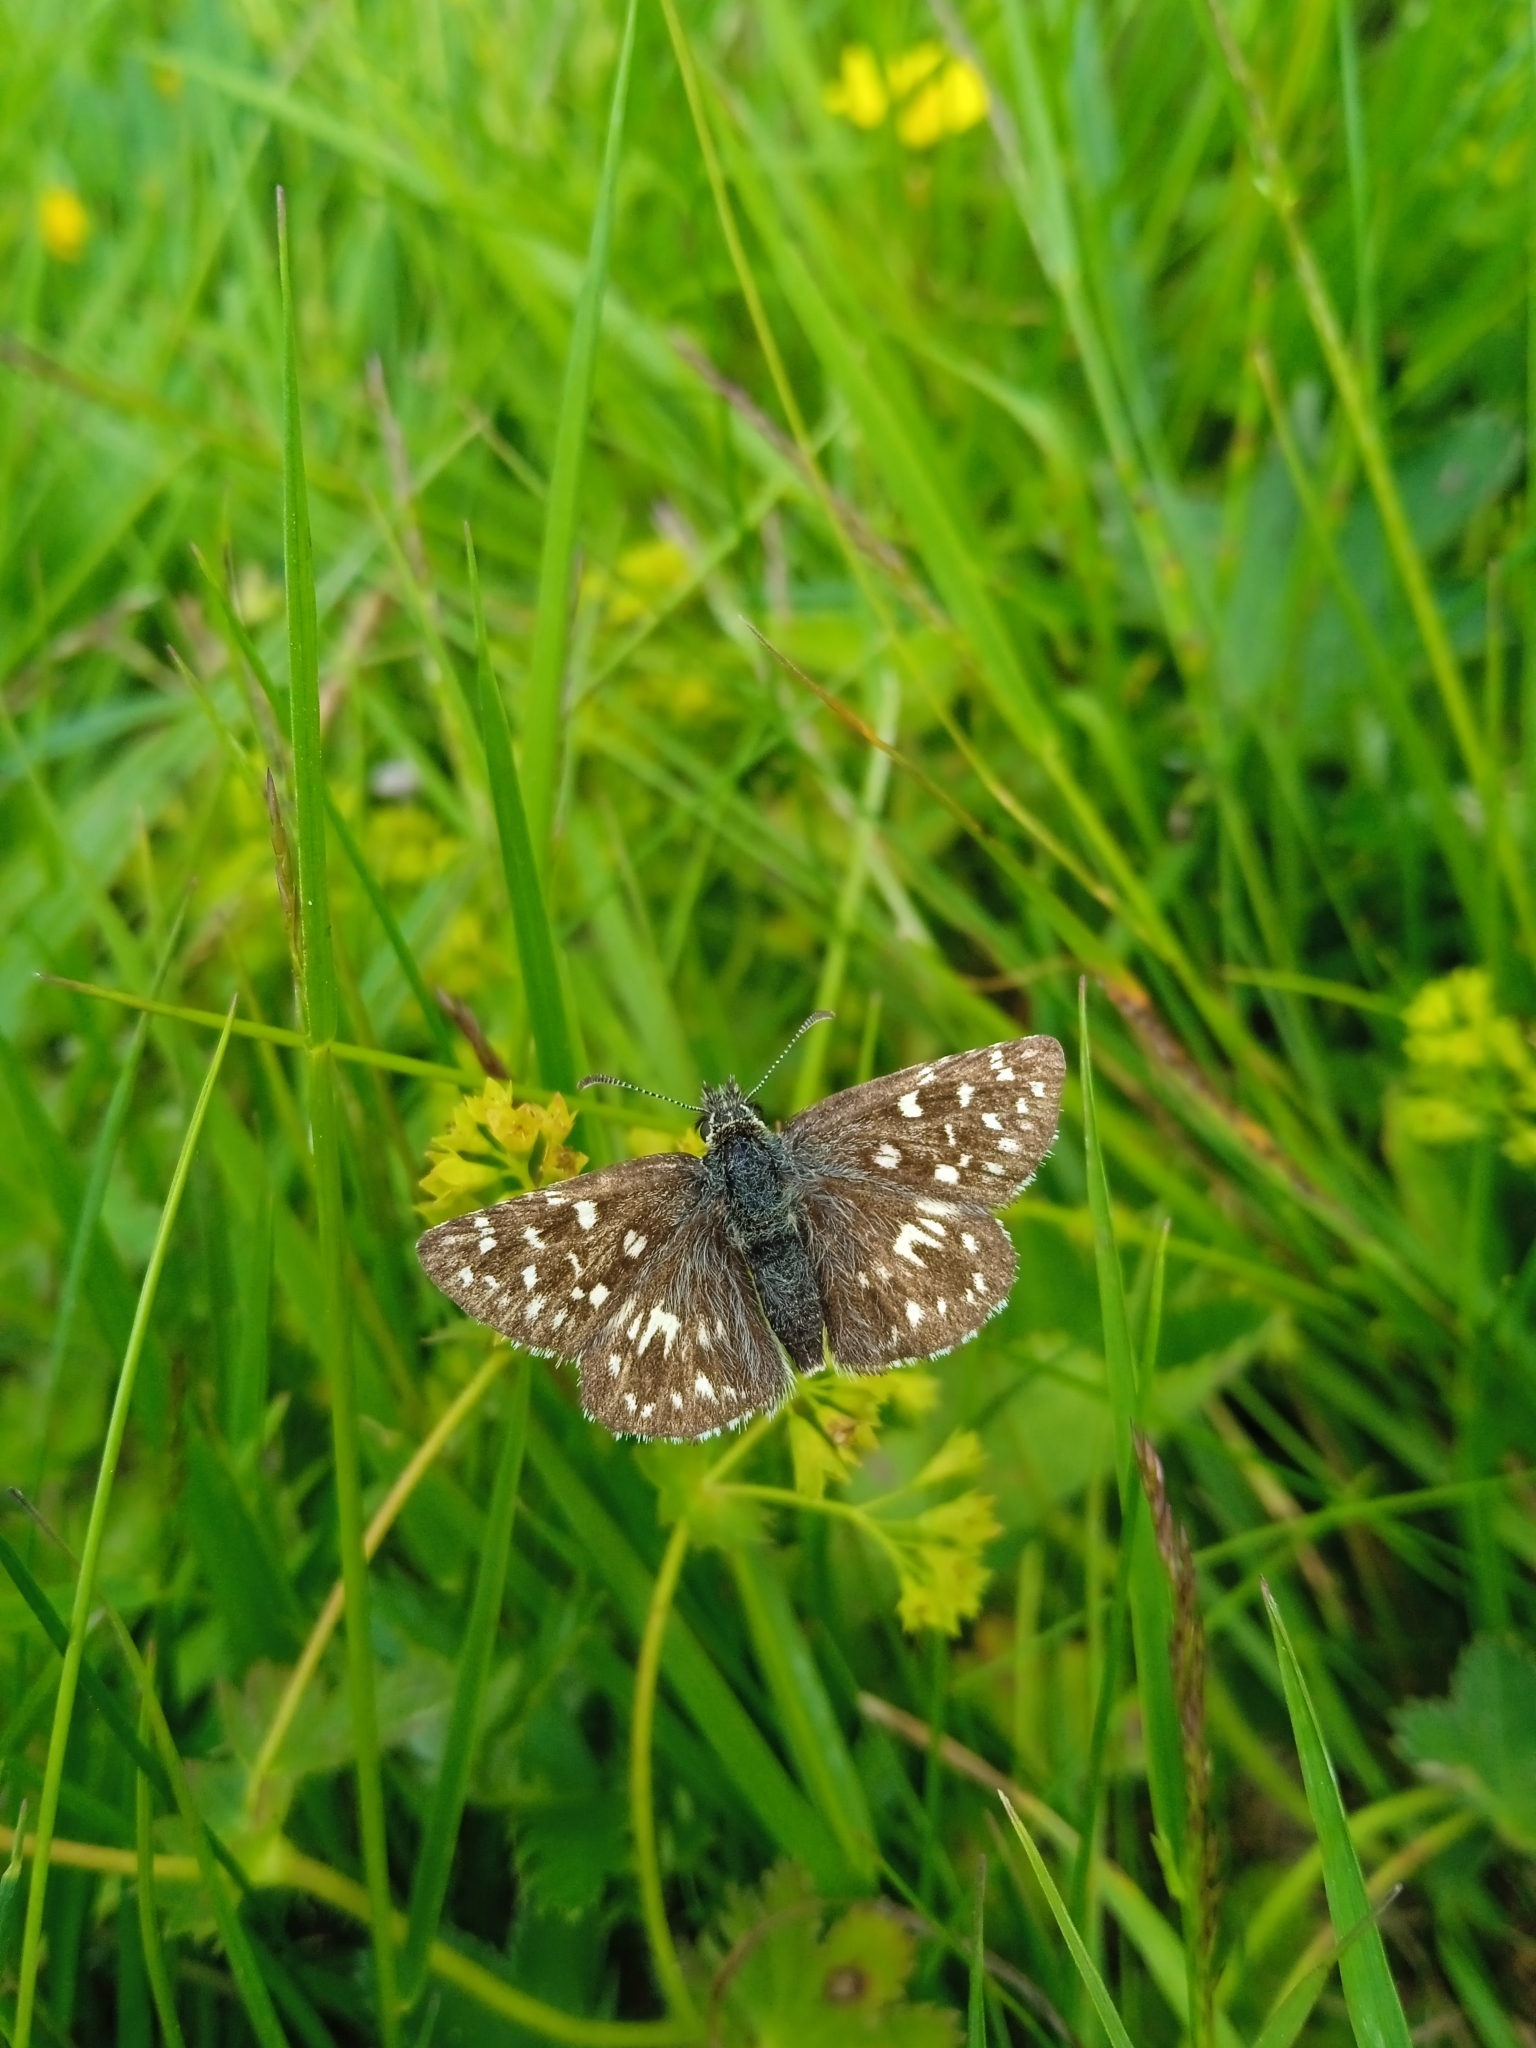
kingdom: Animalia
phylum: Arthropoda
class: Insecta
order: Lepidoptera
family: Hesperiidae
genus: Pyrgus
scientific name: Pyrgus malvae
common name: Grizzled skipper
